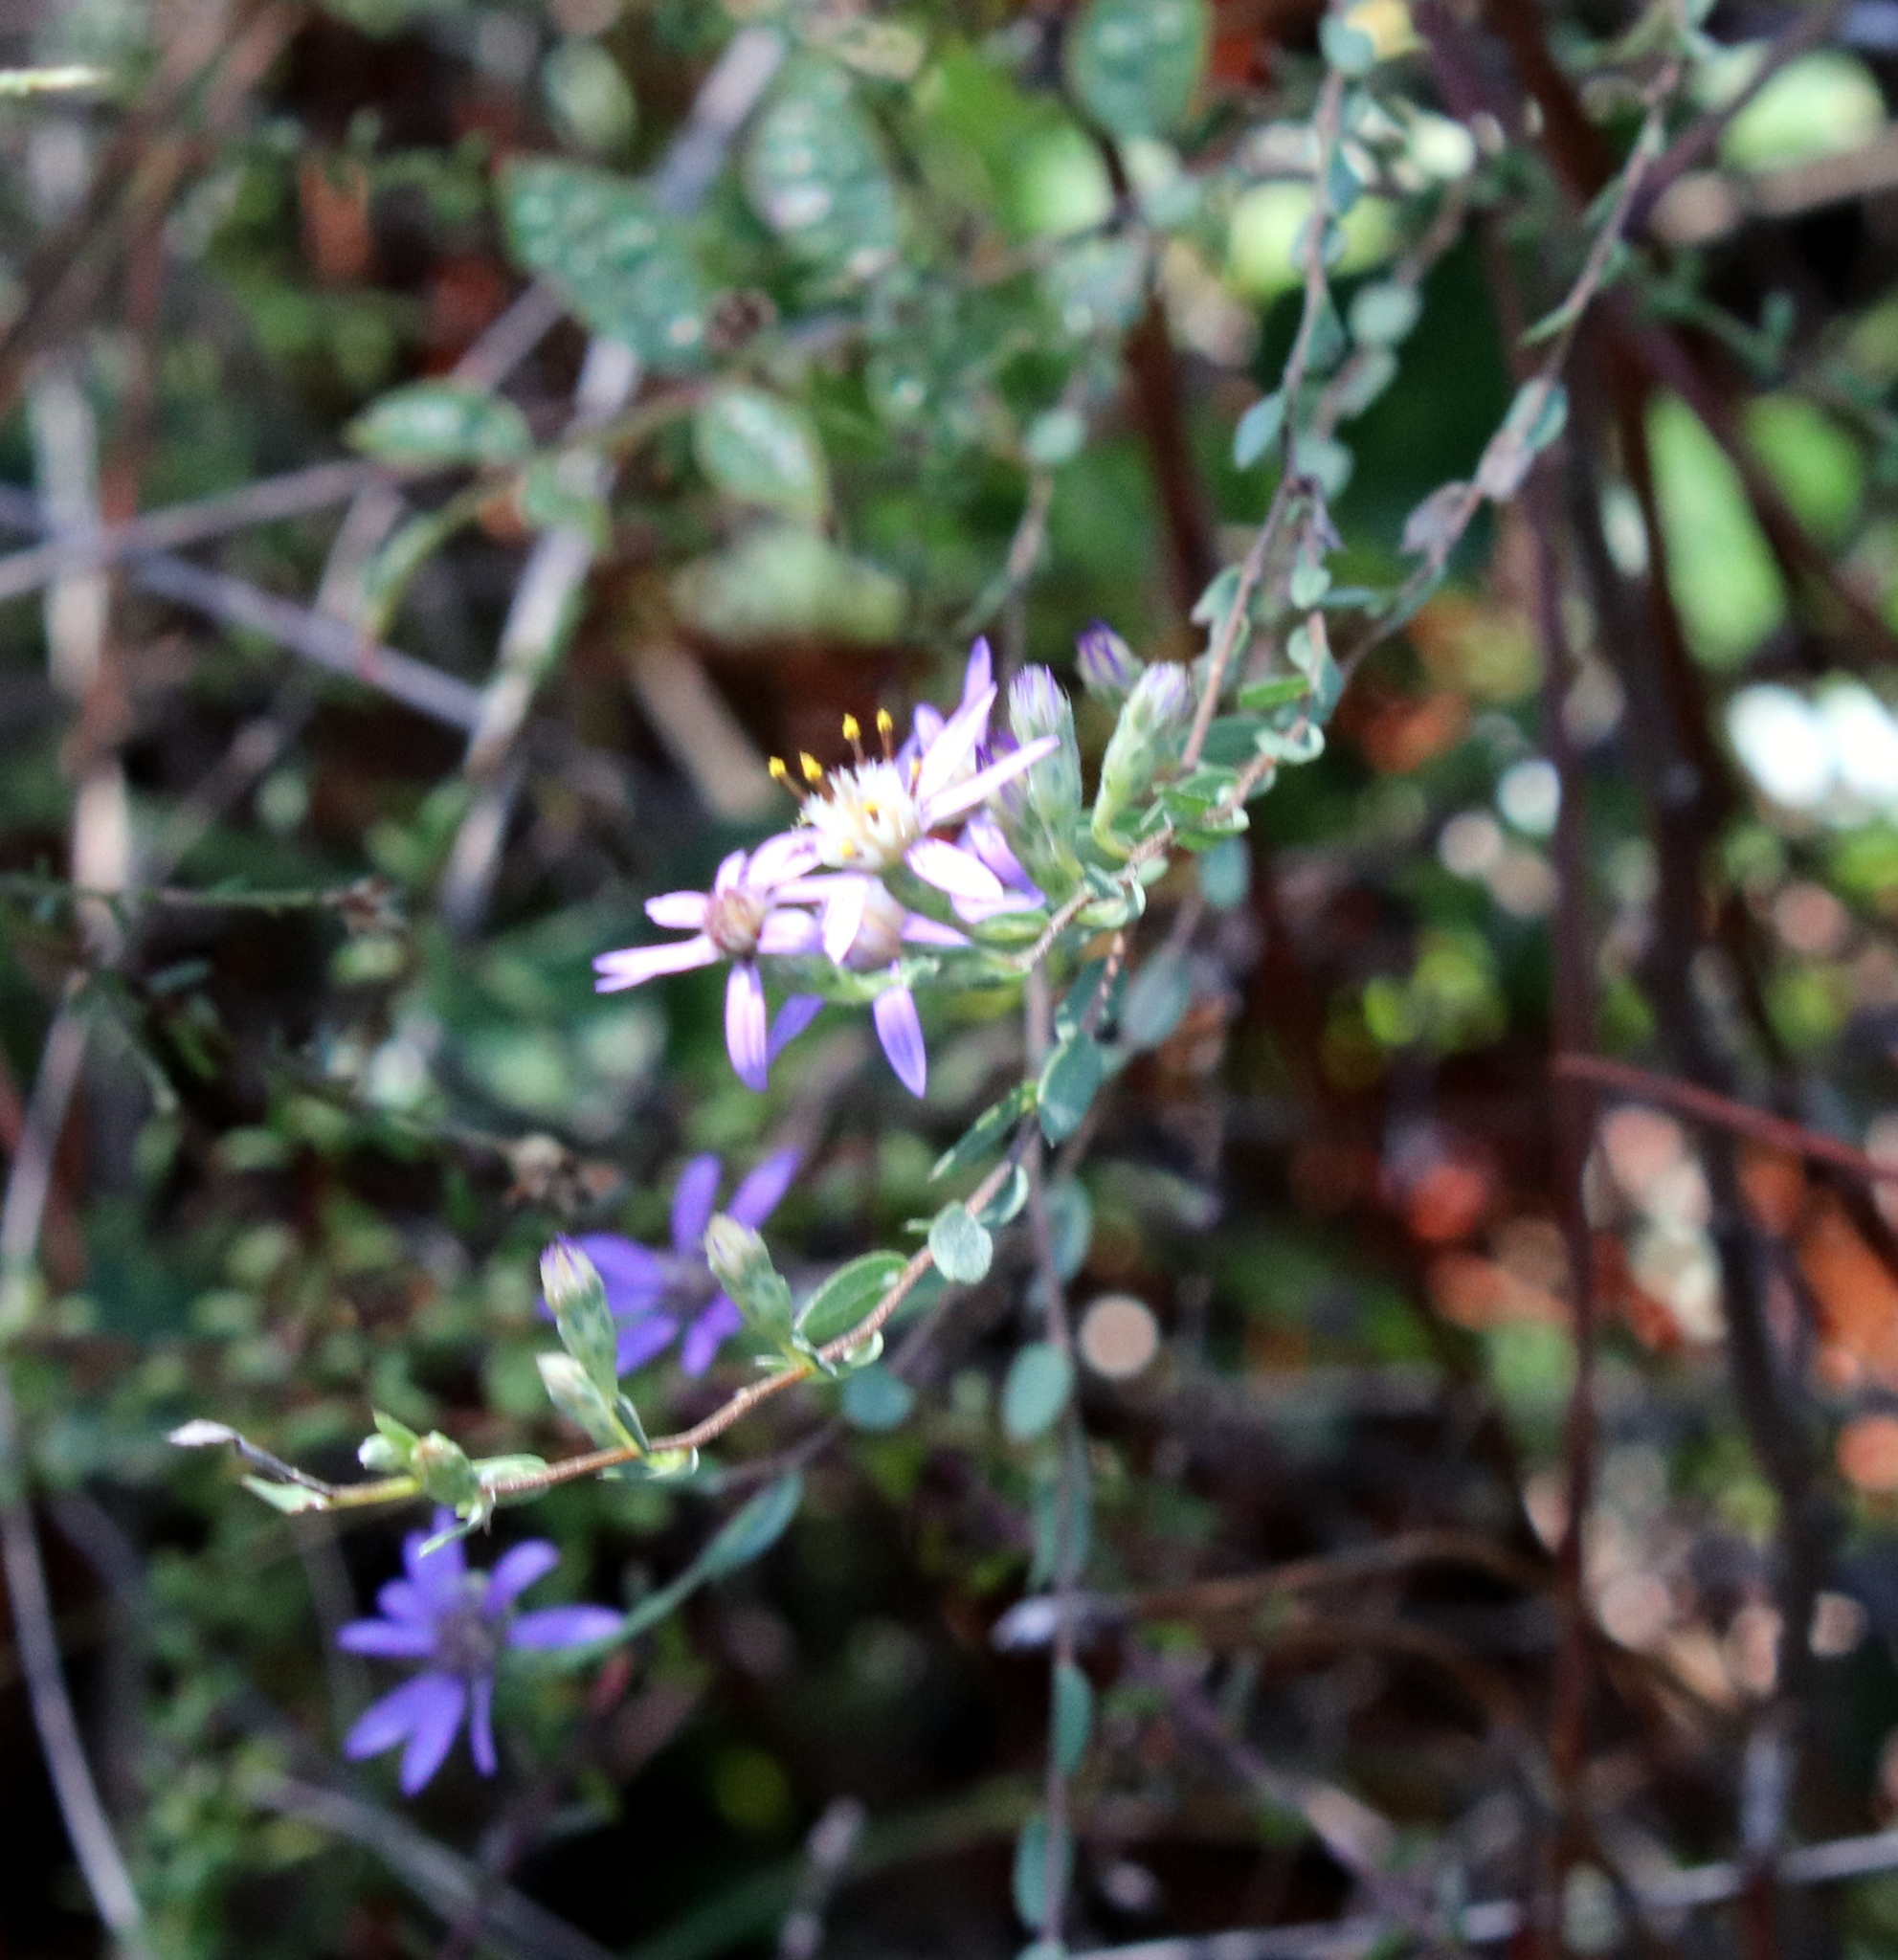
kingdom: Plantae
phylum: Tracheophyta
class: Magnoliopsida
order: Asterales
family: Asteraceae
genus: Symphyotrichum
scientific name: Symphyotrichum concolor
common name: Eastern silver aster
